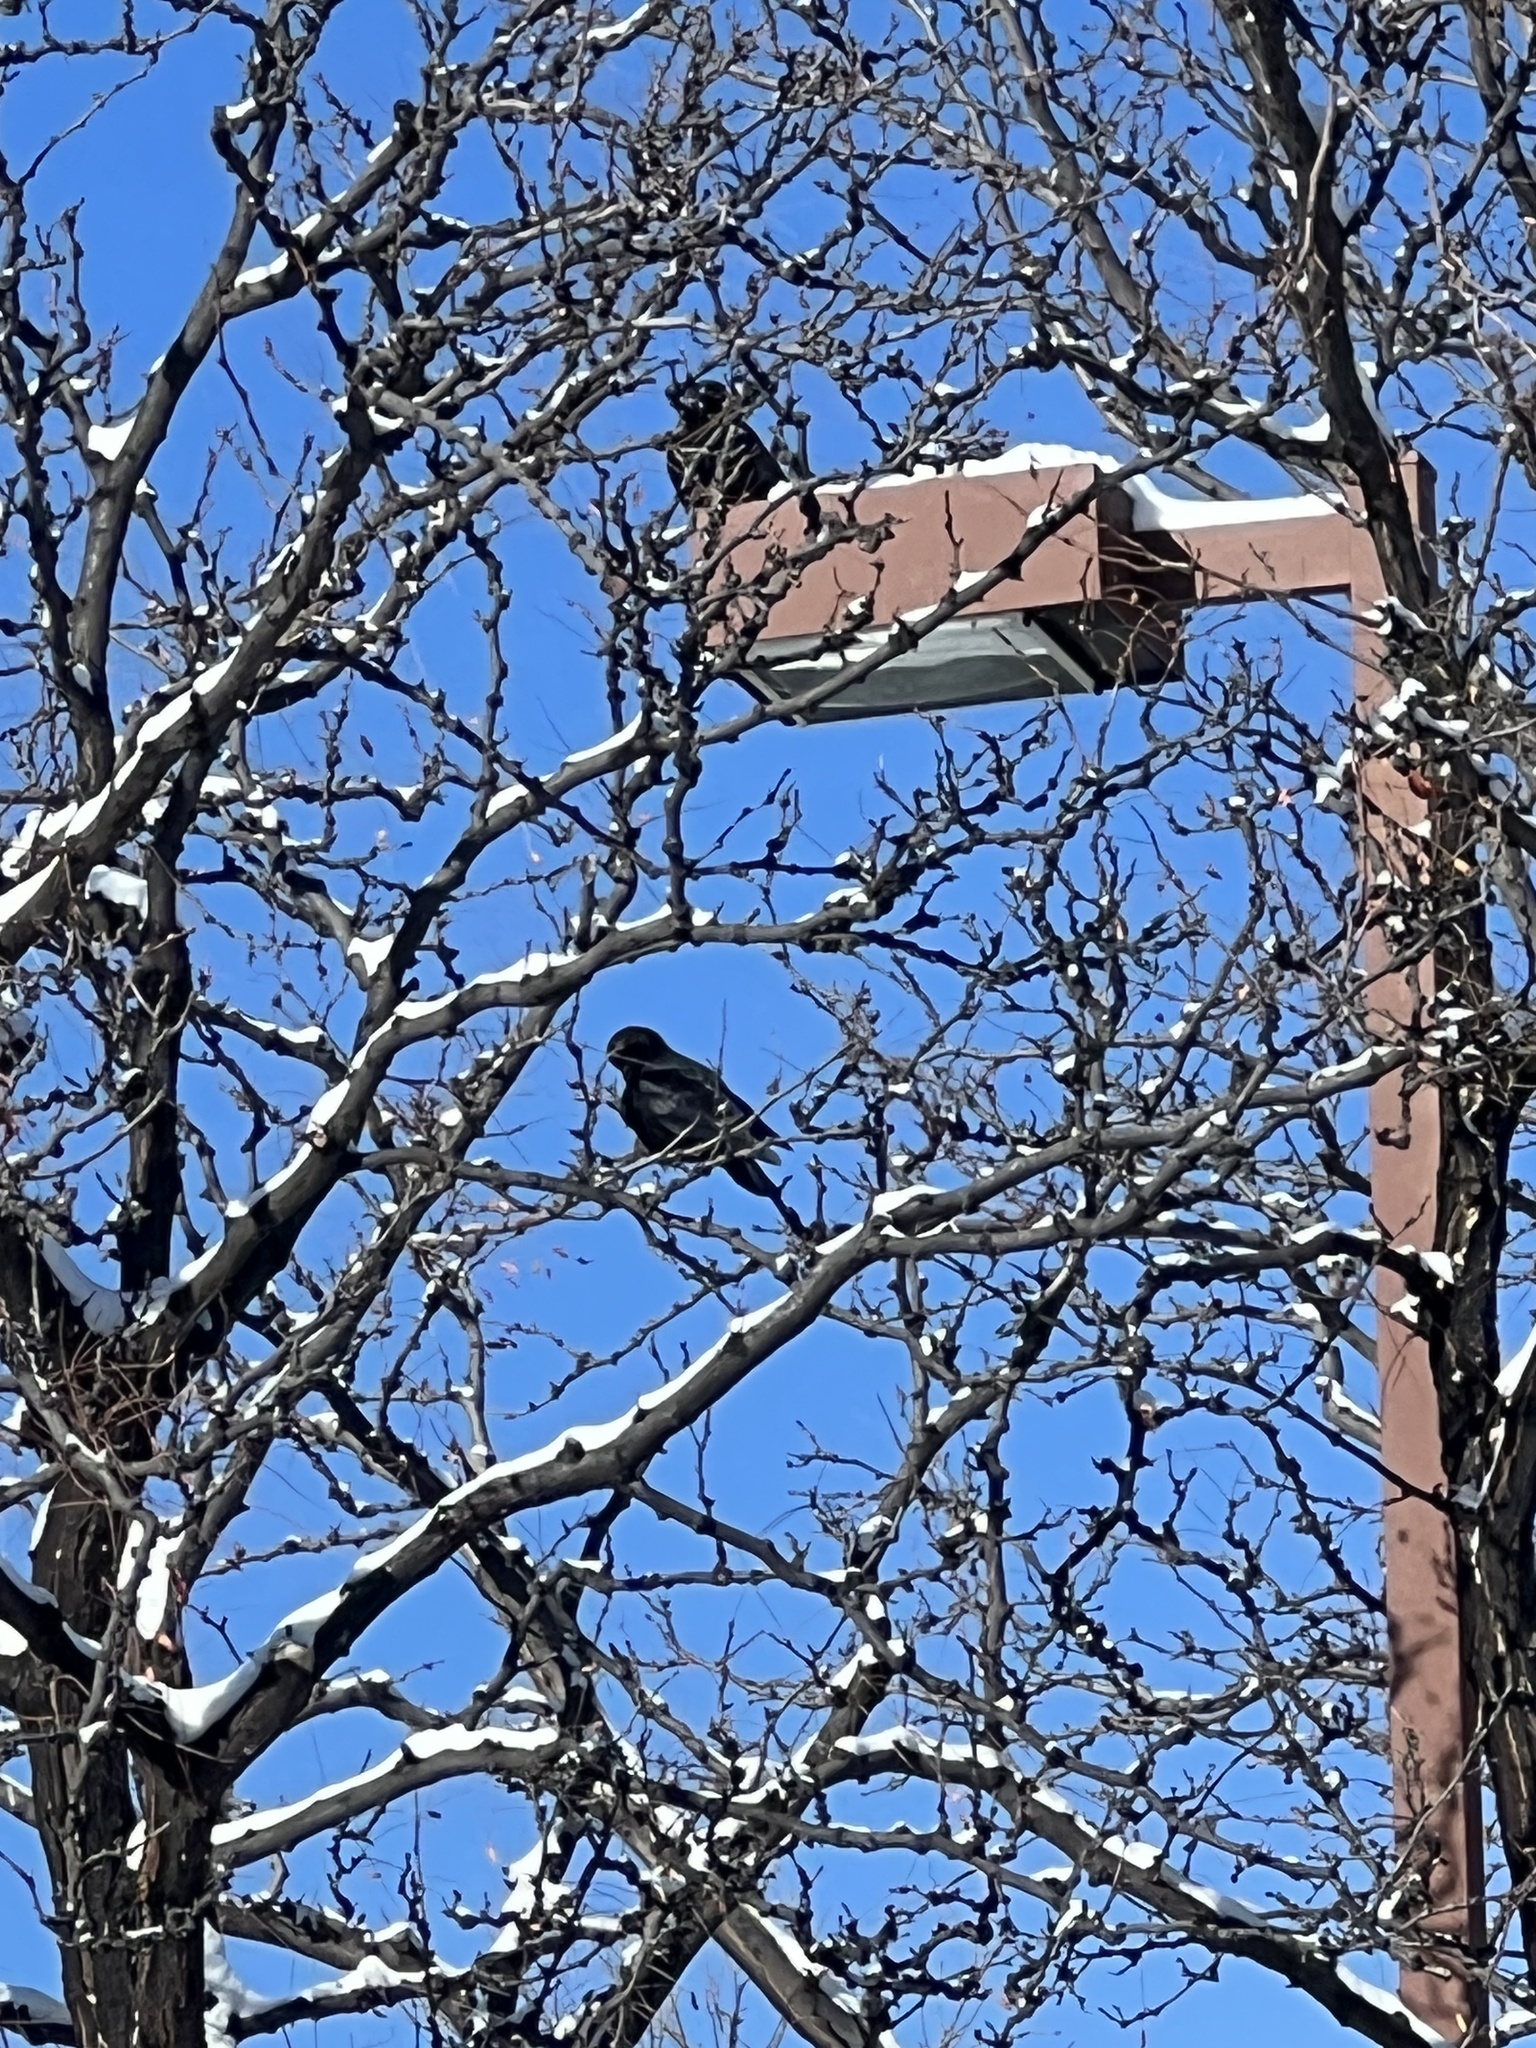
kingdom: Animalia
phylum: Chordata
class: Aves
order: Passeriformes
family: Corvidae
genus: Corvus
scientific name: Corvus brachyrhynchos
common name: American crow
